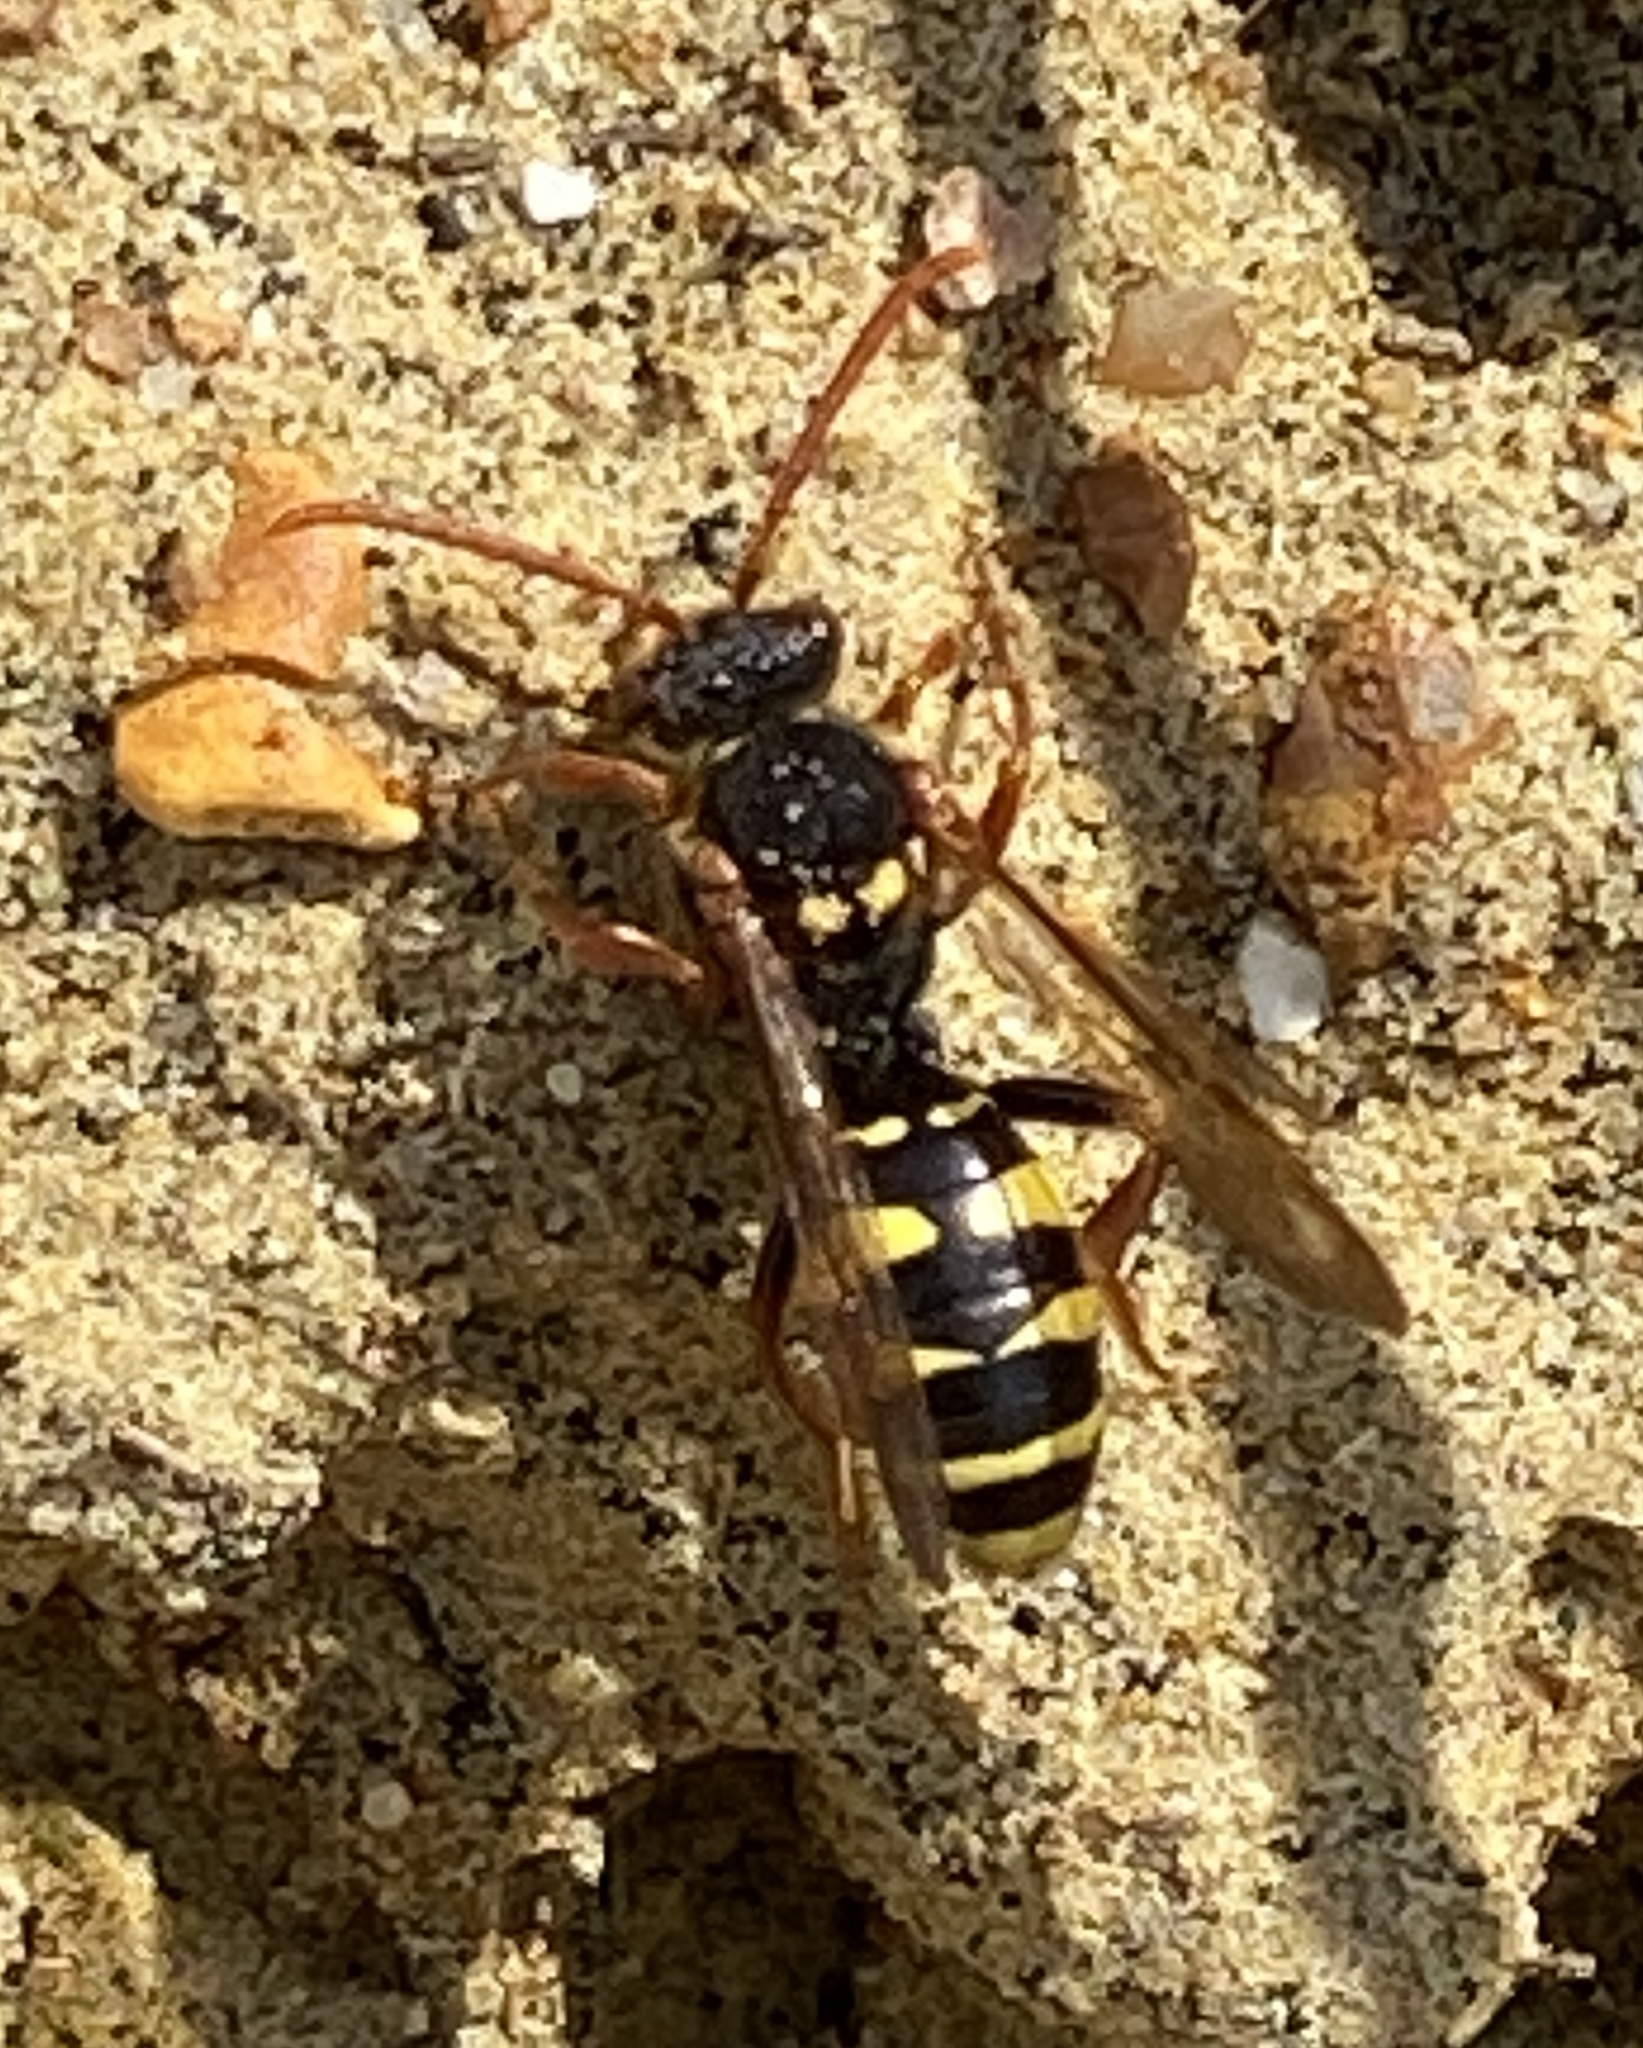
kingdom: Animalia
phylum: Arthropoda
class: Insecta
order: Hymenoptera
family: Apidae
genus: Nomada
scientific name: Nomada marshamella
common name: Marsham's nomad bee
